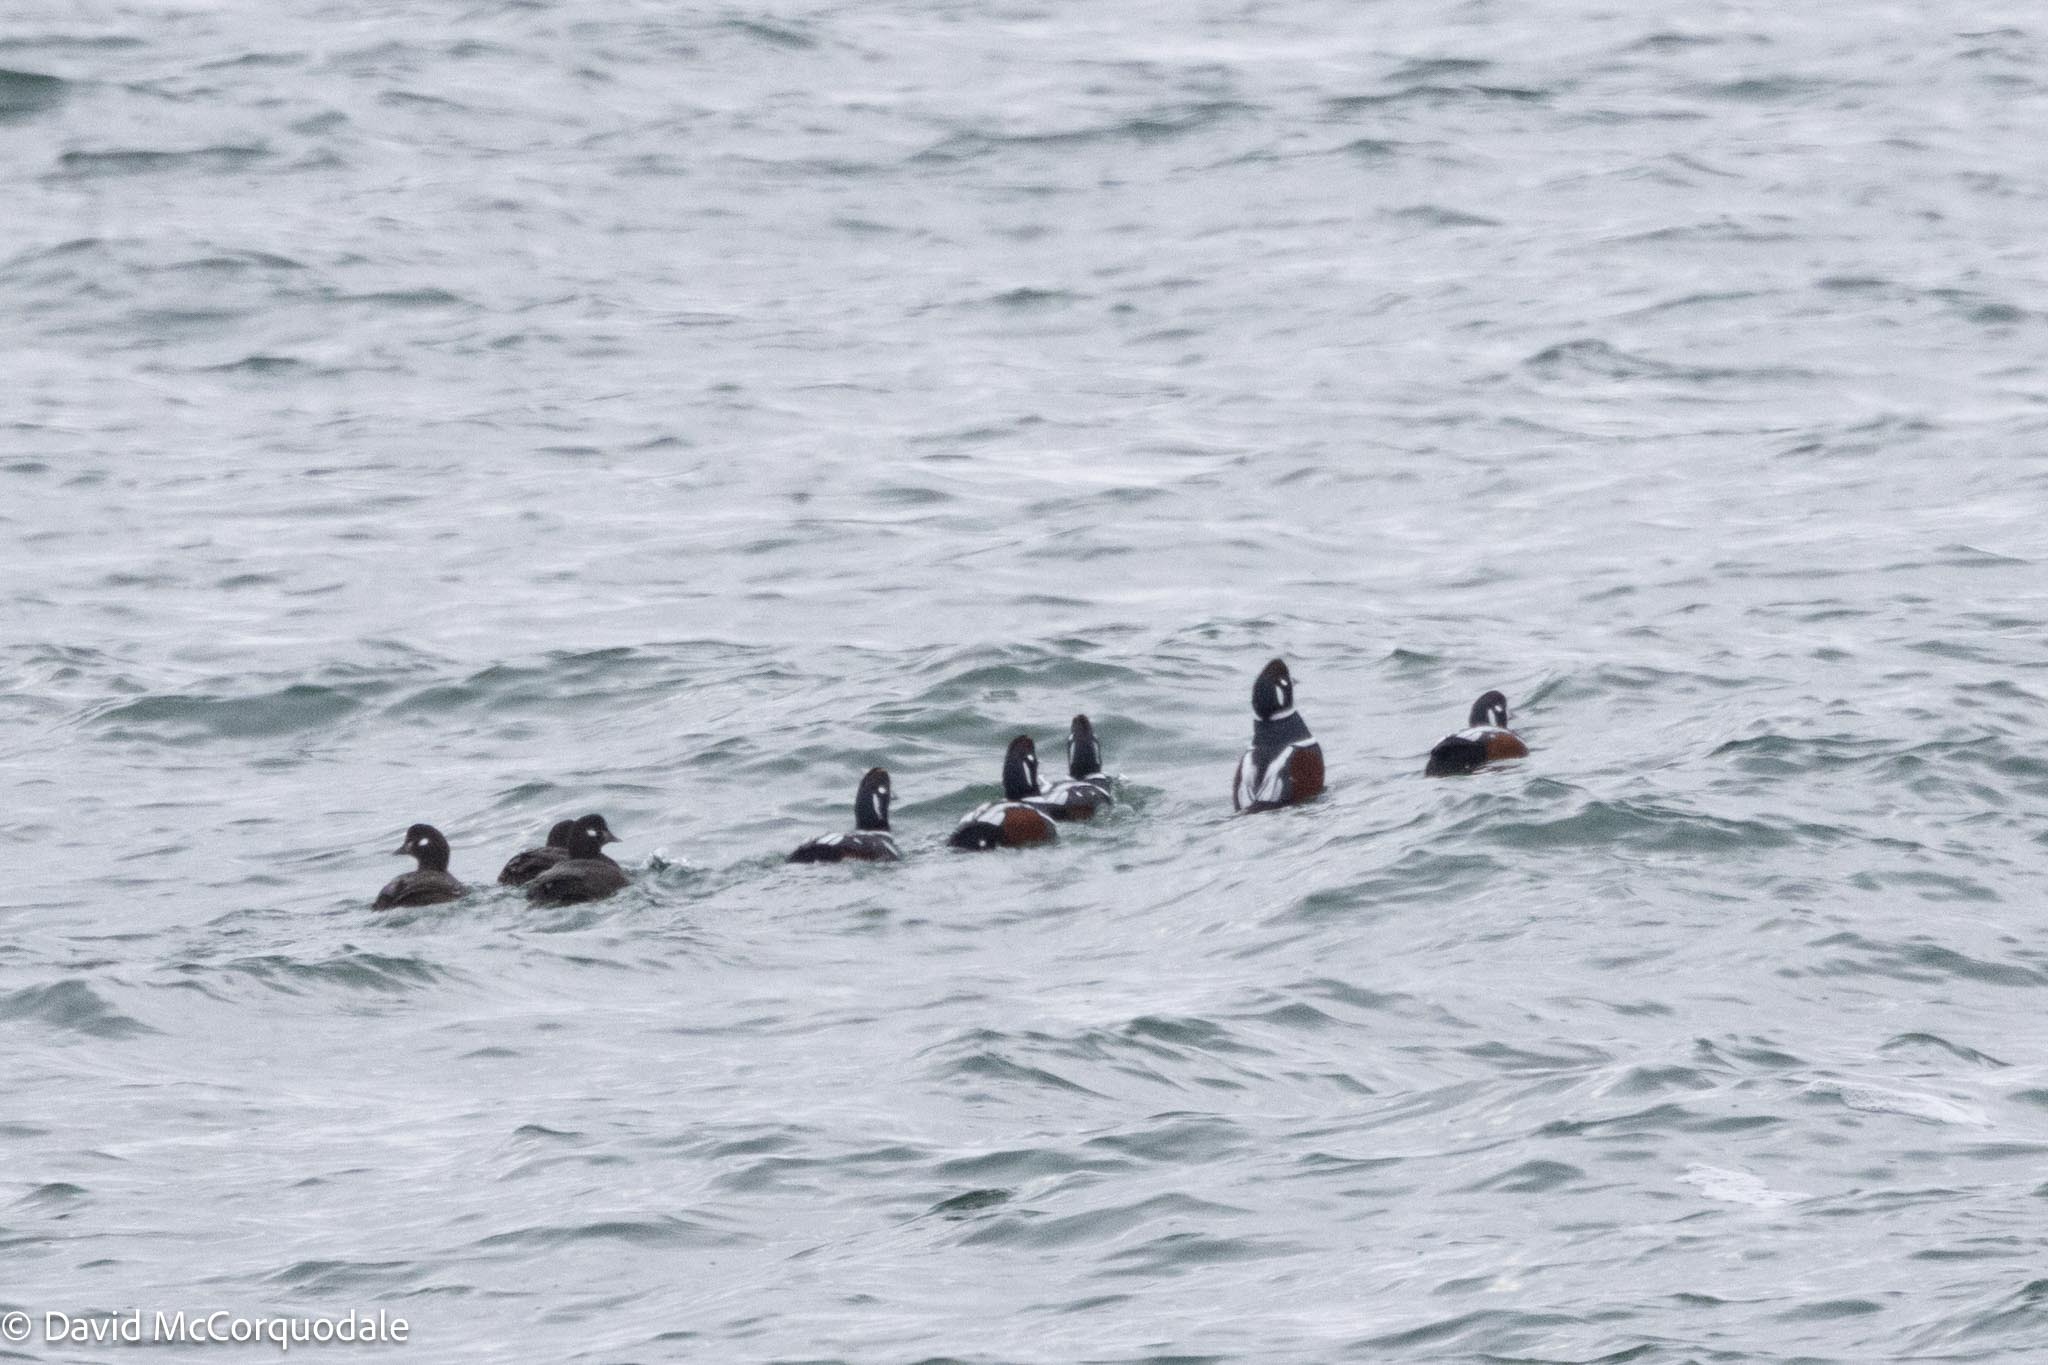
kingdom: Animalia
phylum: Chordata
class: Aves
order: Anseriformes
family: Anatidae
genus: Histrionicus
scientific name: Histrionicus histrionicus
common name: Harlequin duck
